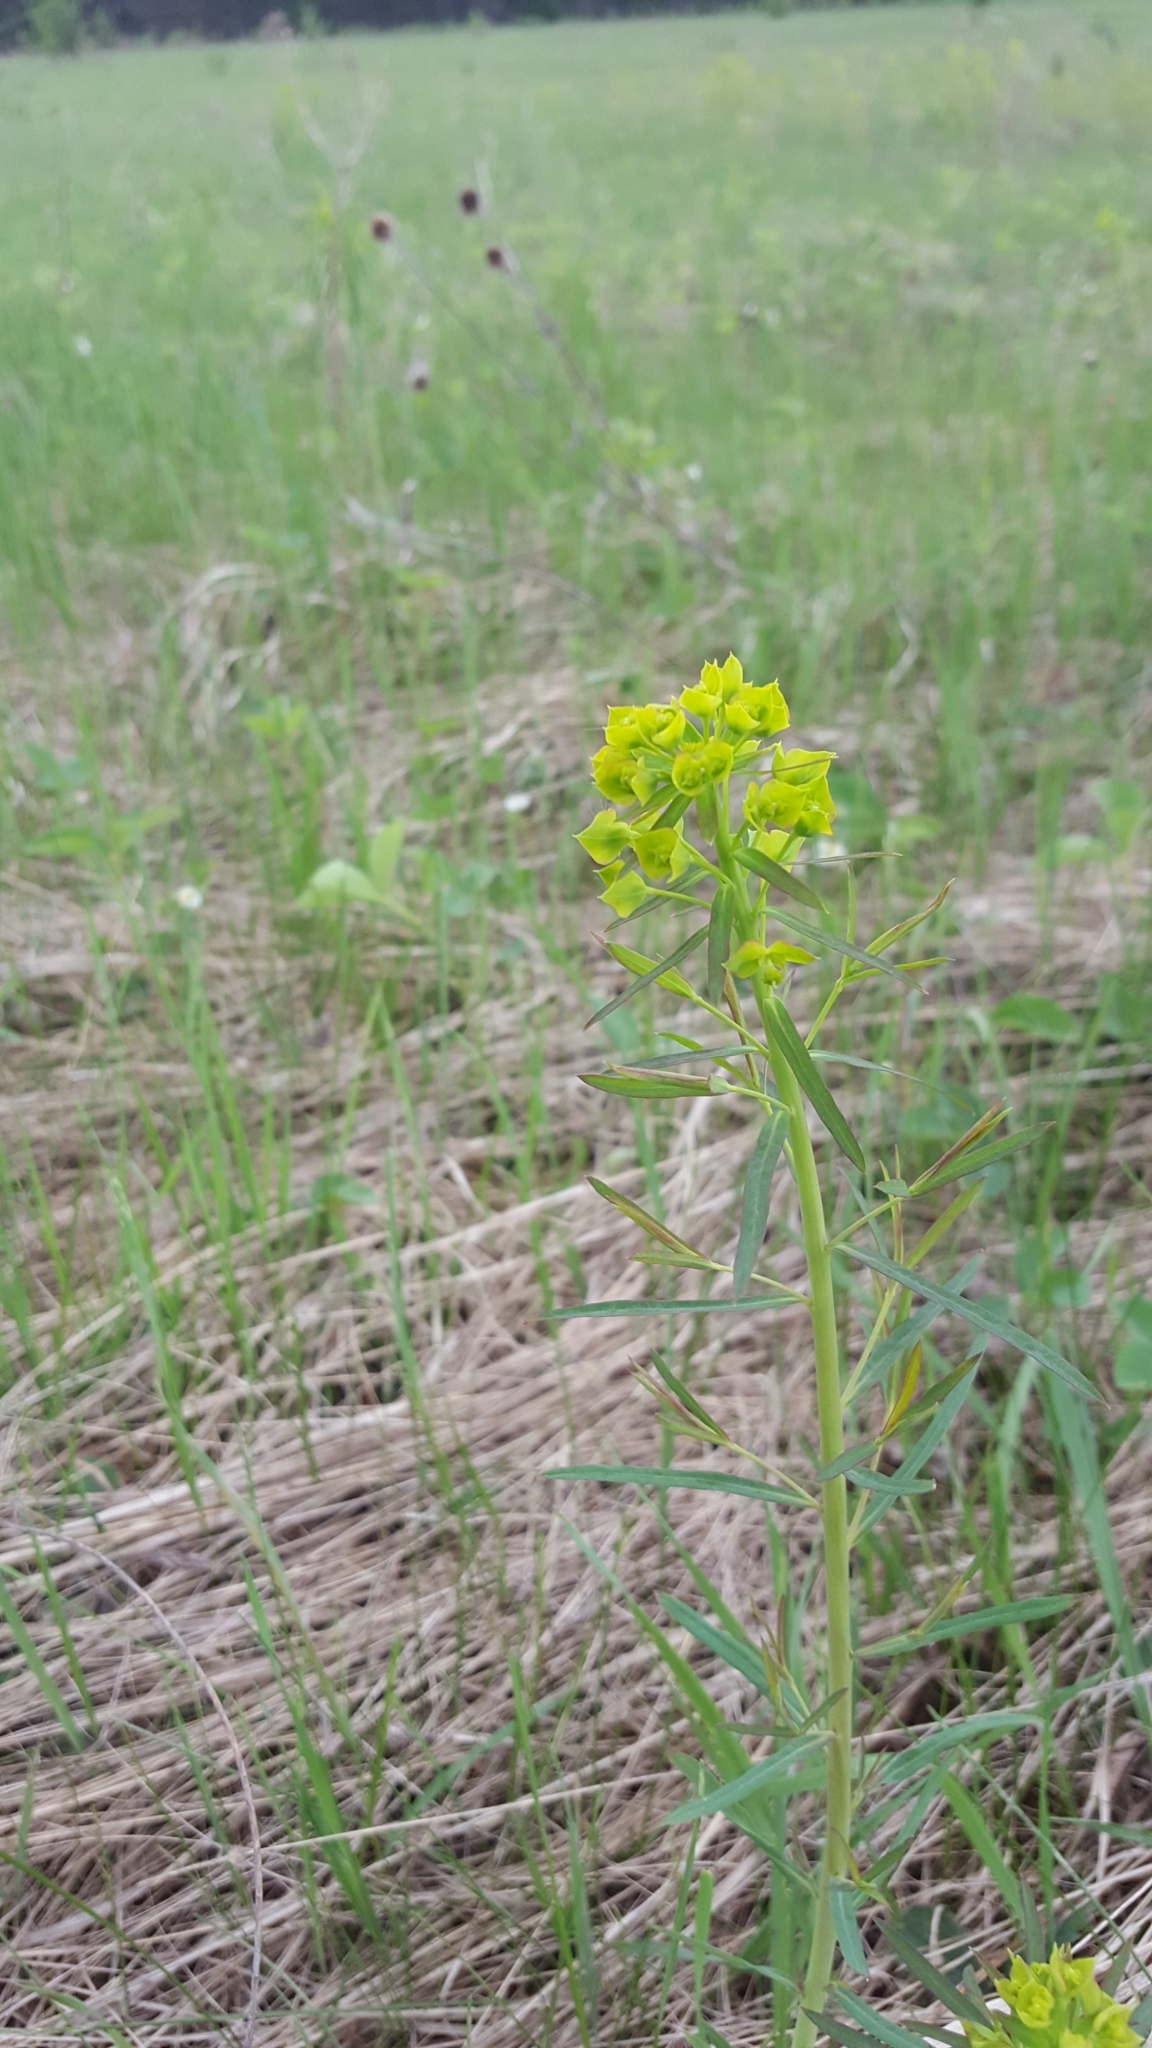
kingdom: Plantae
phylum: Tracheophyta
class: Magnoliopsida
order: Malpighiales
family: Euphorbiaceae
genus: Euphorbia
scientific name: Euphorbia virgata
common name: Leafy spurge
